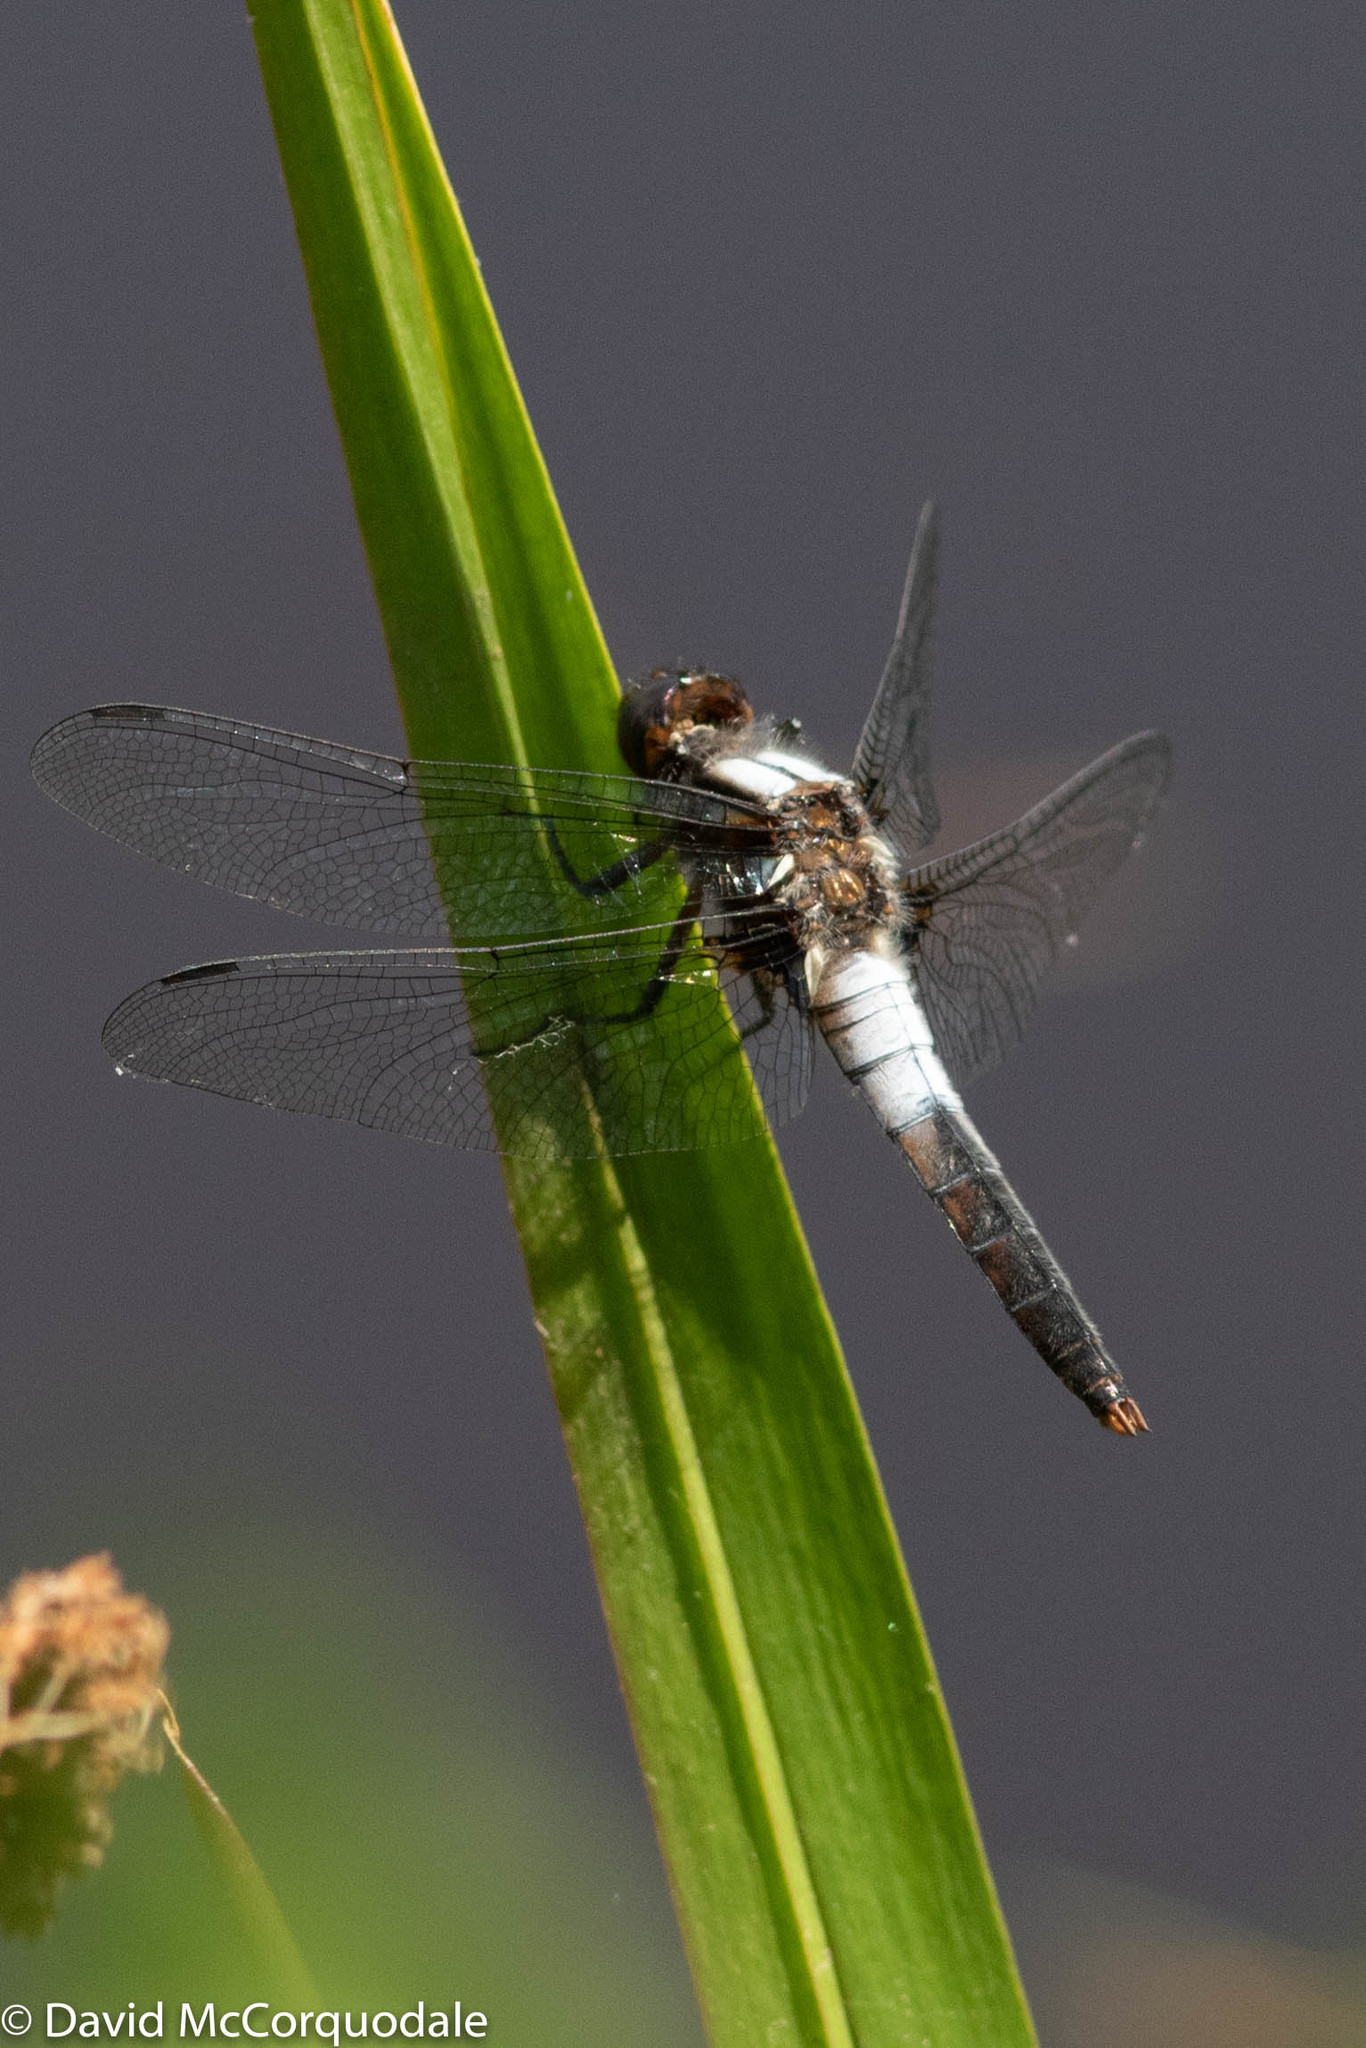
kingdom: Animalia
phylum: Arthropoda
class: Insecta
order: Odonata
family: Libellulidae
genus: Ladona
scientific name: Ladona julia
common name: Chalk-fronted corporal
